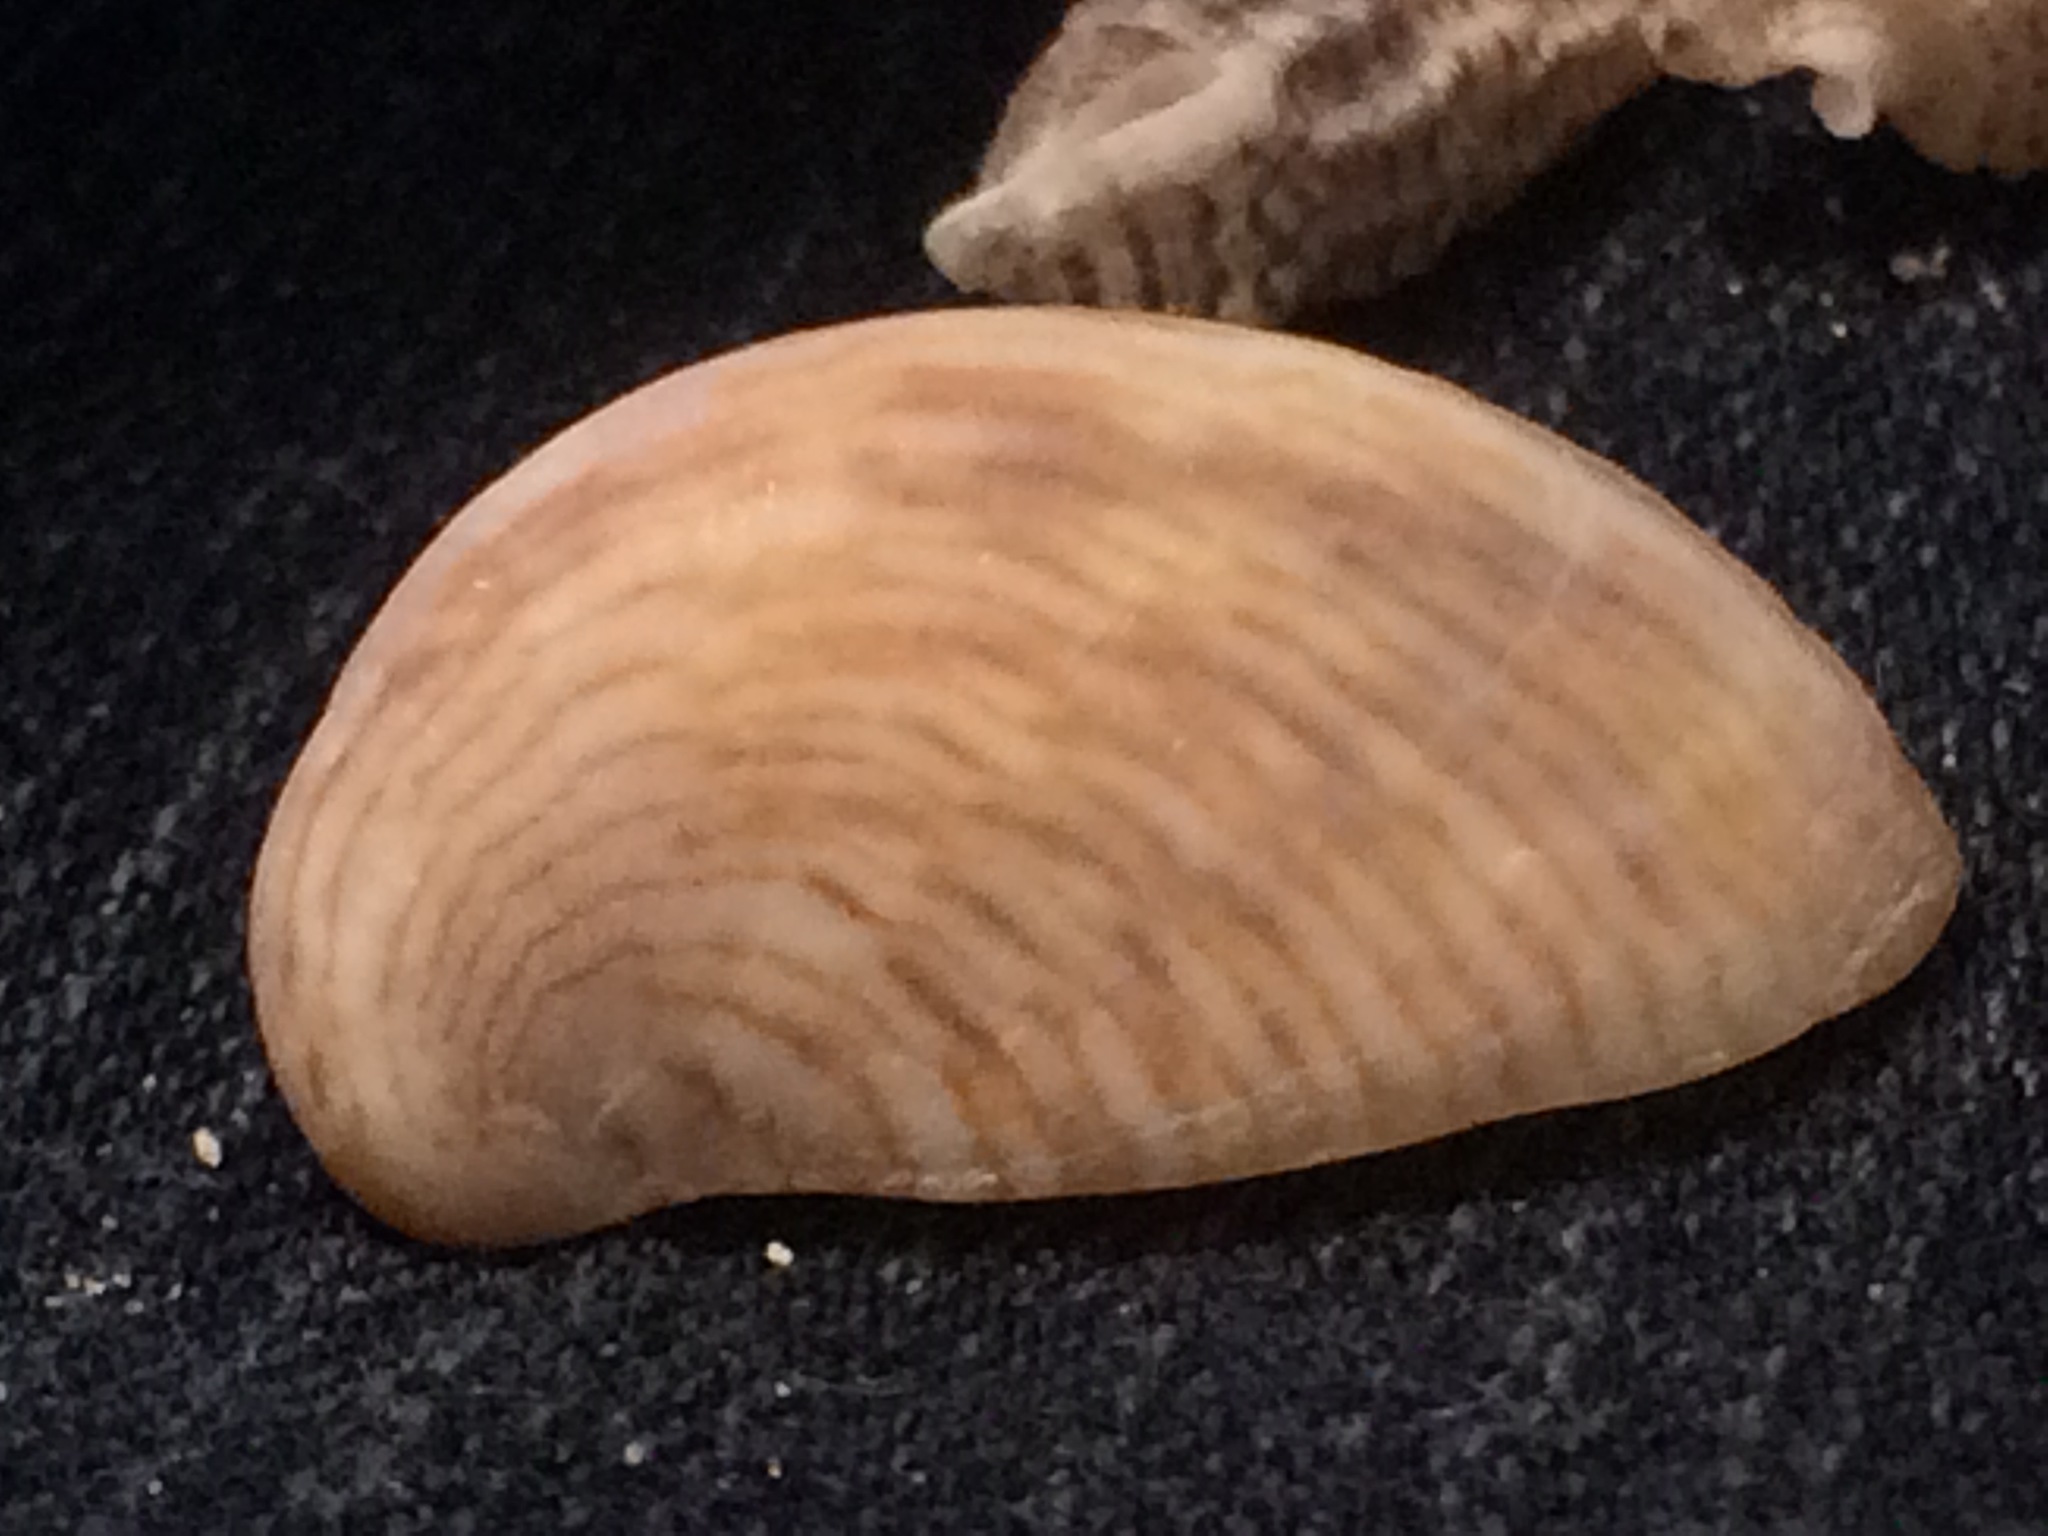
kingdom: Animalia
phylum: Mollusca
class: Gastropoda
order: Littorinimorpha
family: Calyptraeidae
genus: Crepidula
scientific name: Crepidula fornicata
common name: Slipper limpet
